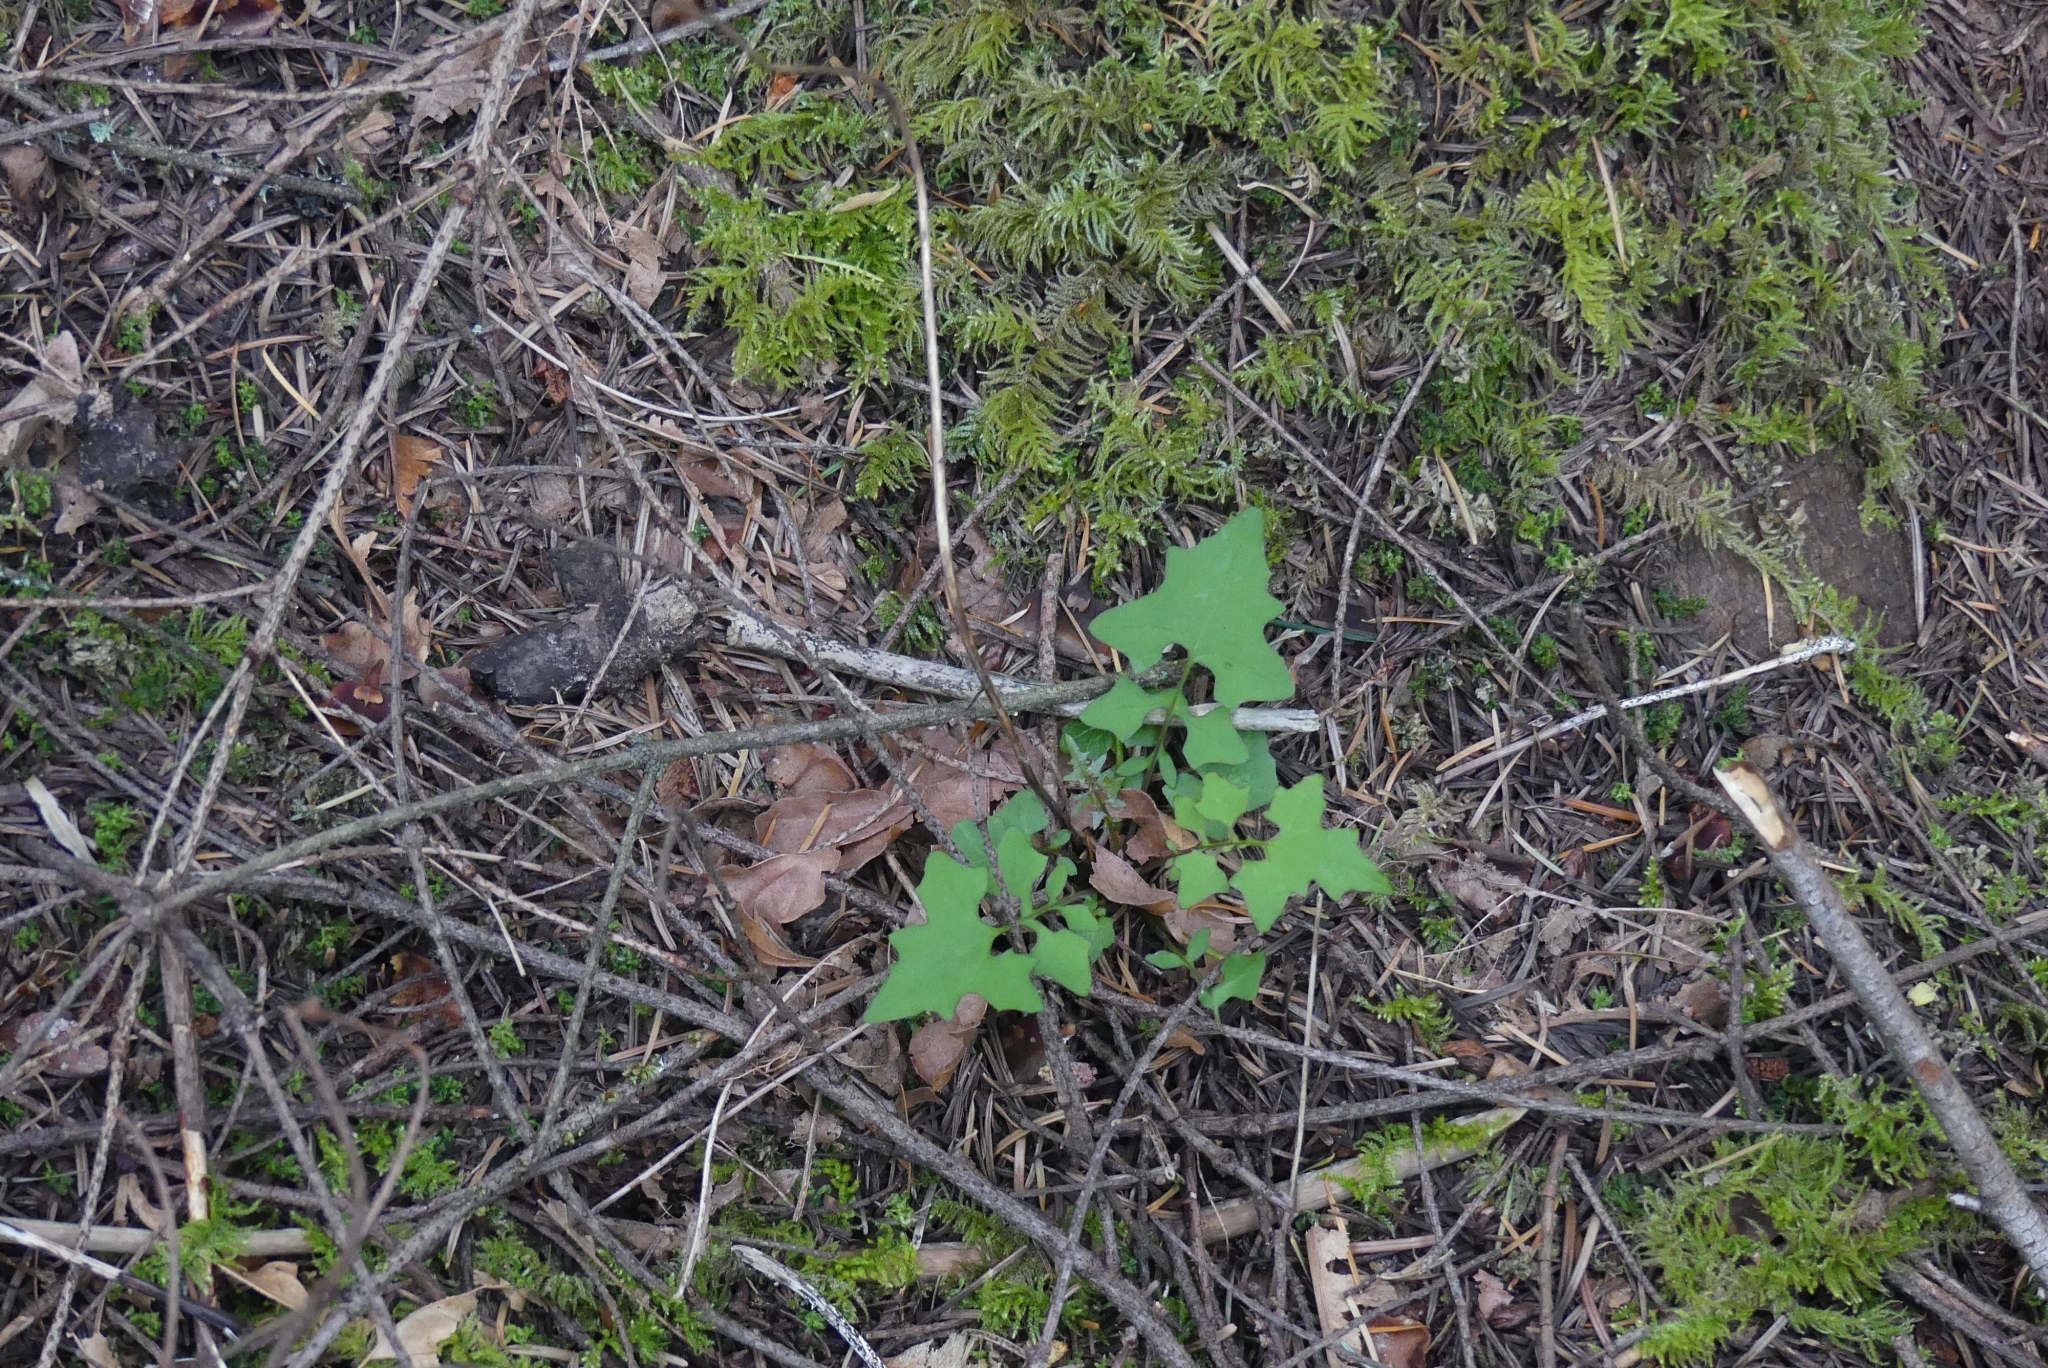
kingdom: Plantae
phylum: Tracheophyta
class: Magnoliopsida
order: Asterales
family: Asteraceae
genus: Mycelis
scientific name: Mycelis muralis
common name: Wall lettuce
